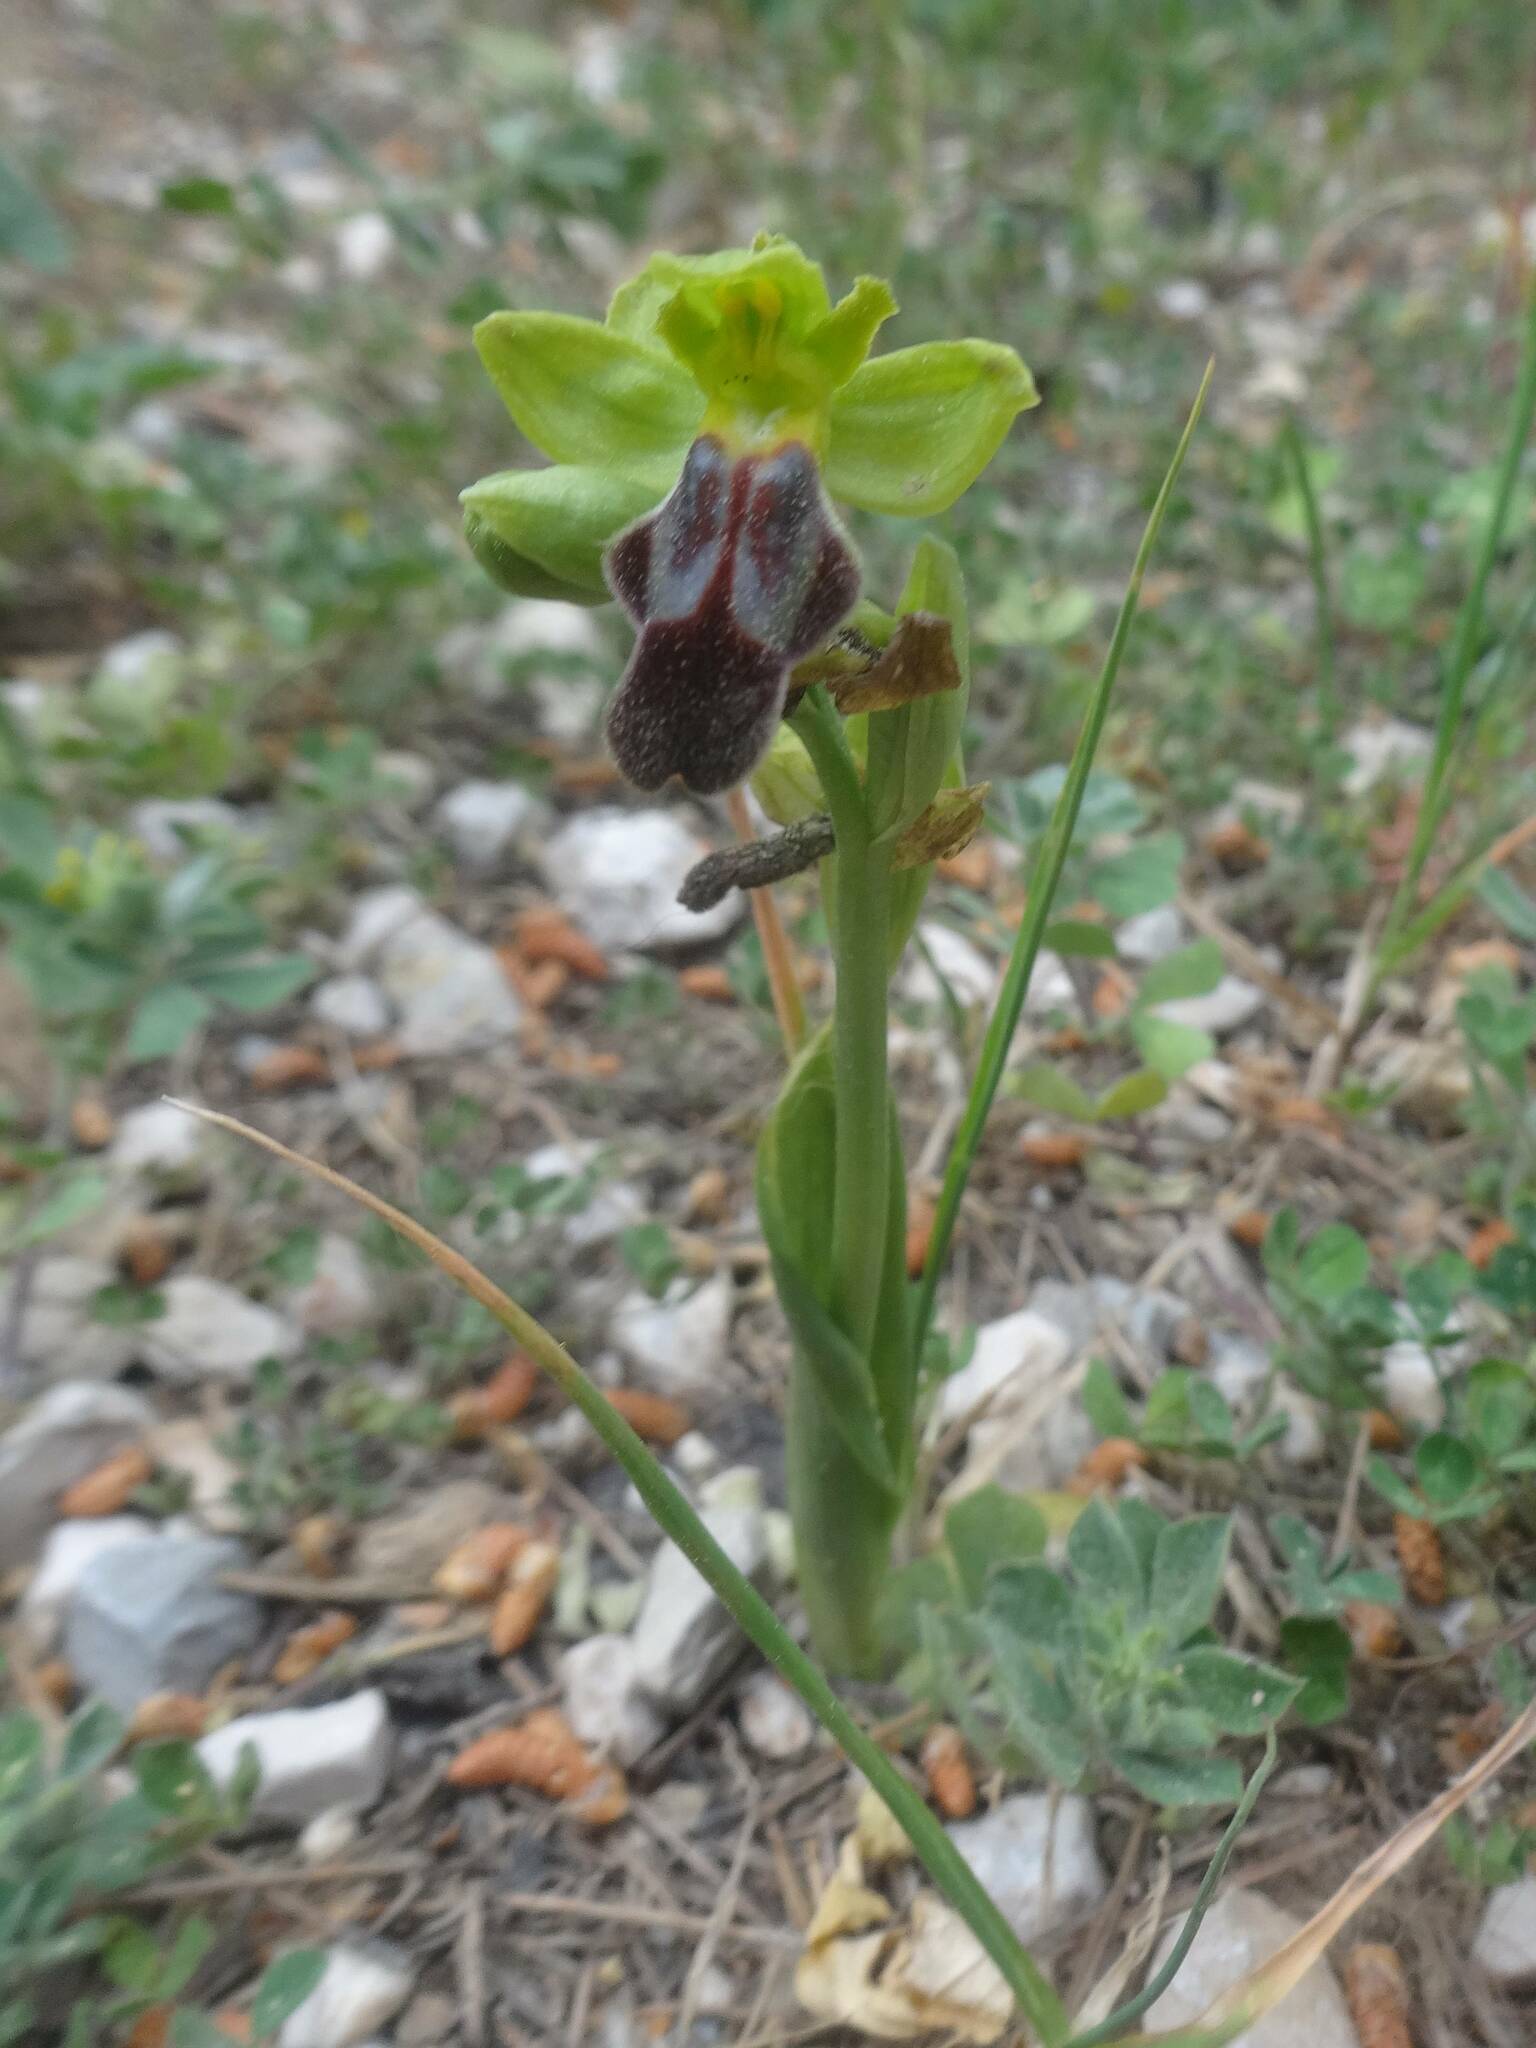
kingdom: Plantae
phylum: Tracheophyta
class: Liliopsida
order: Asparagales
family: Orchidaceae
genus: Ophrys
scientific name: Ophrys fusca
